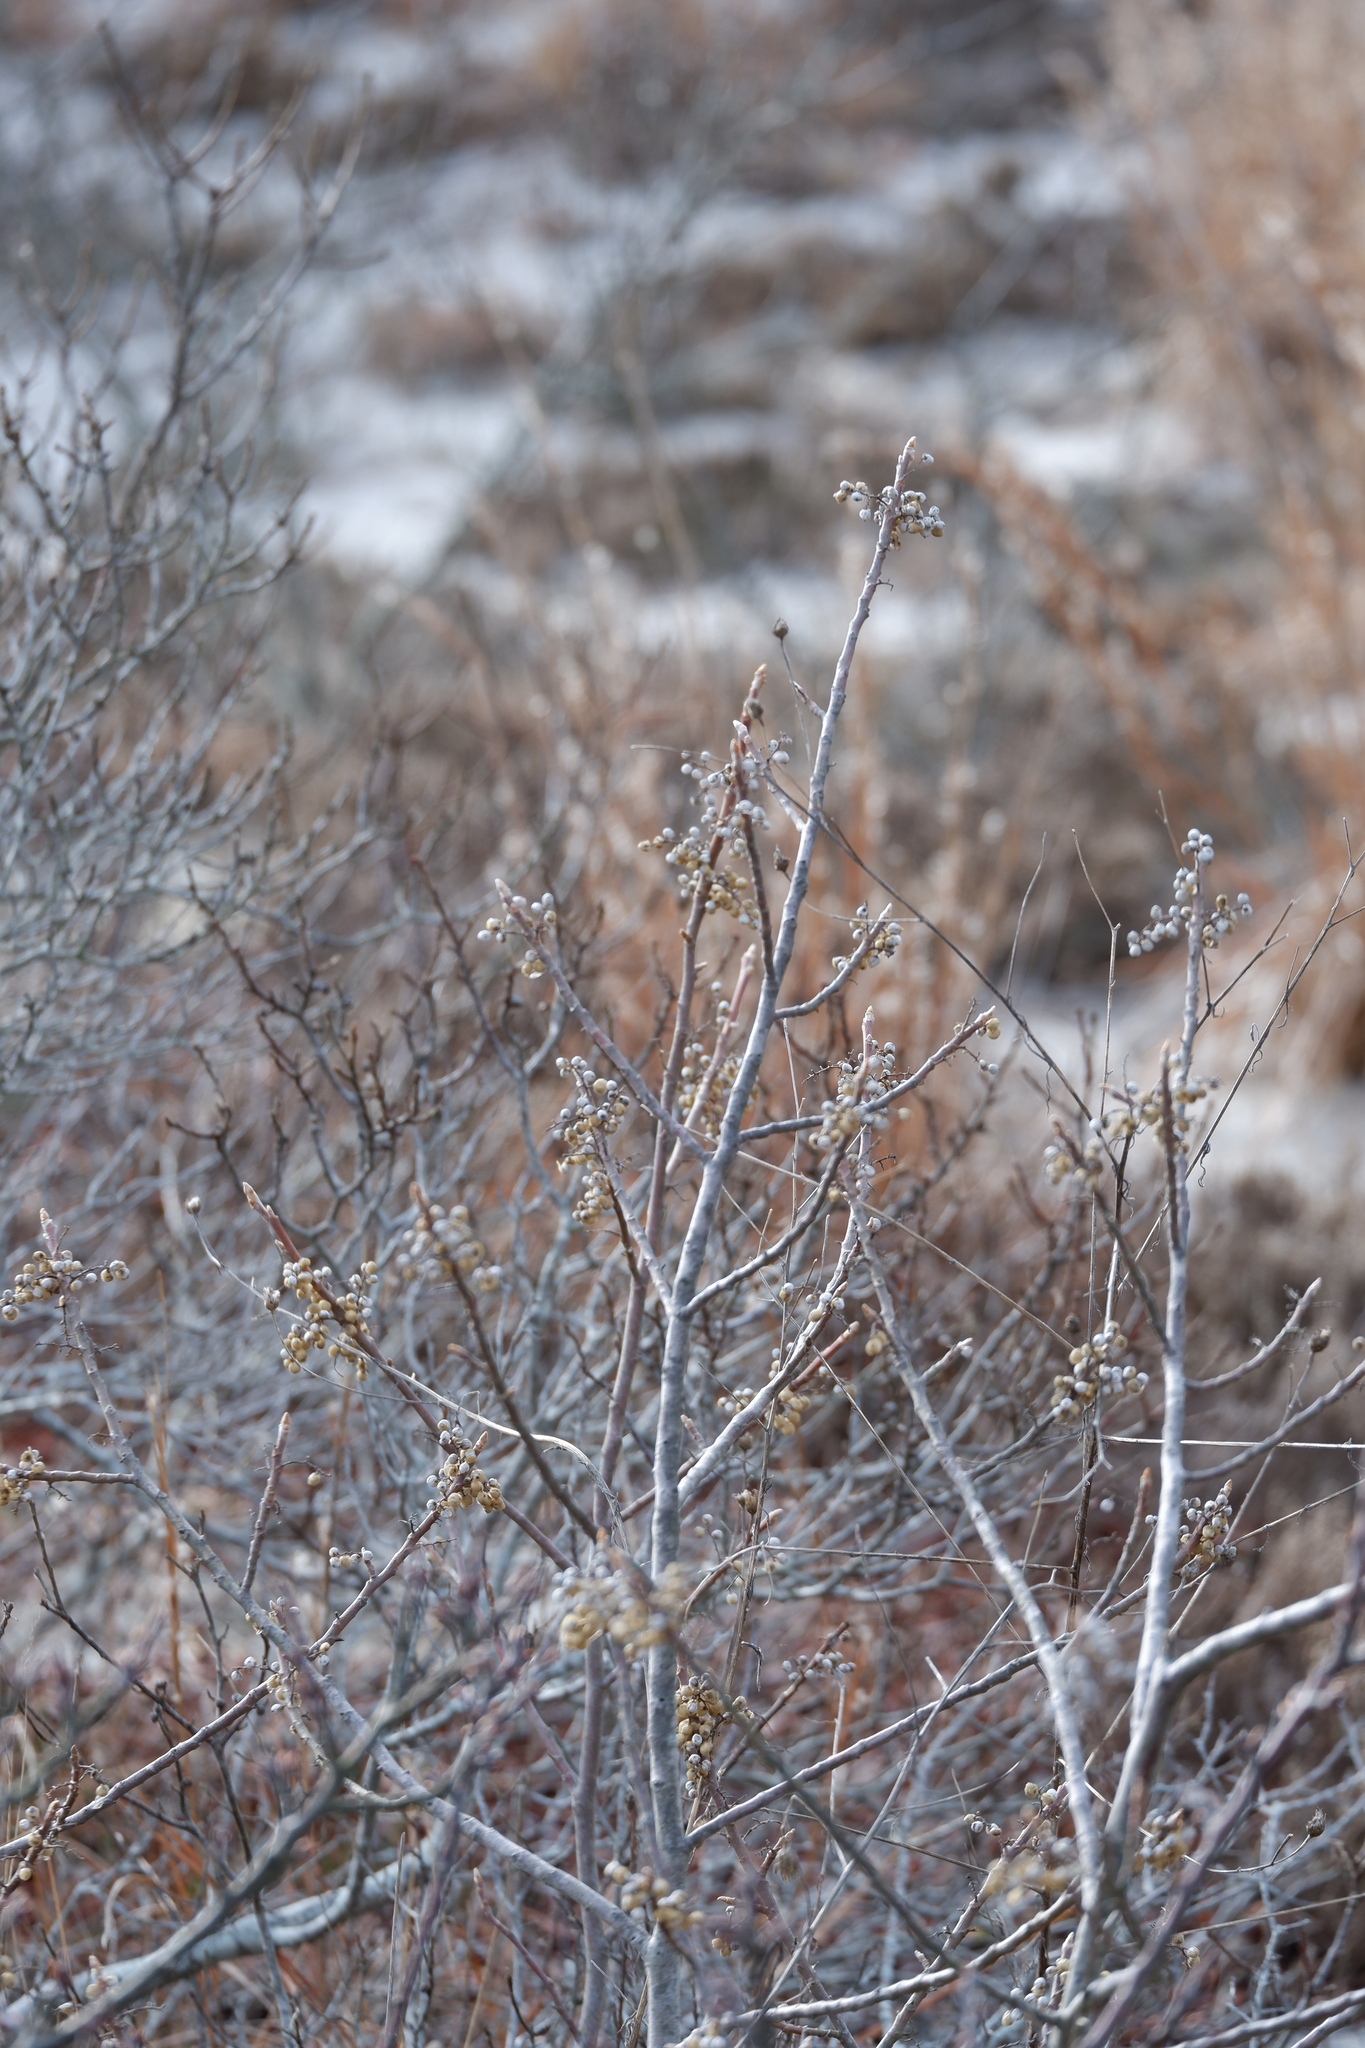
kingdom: Plantae
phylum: Tracheophyta
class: Magnoliopsida
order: Sapindales
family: Anacardiaceae
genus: Toxicodendron
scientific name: Toxicodendron radicans
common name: Poison ivy
